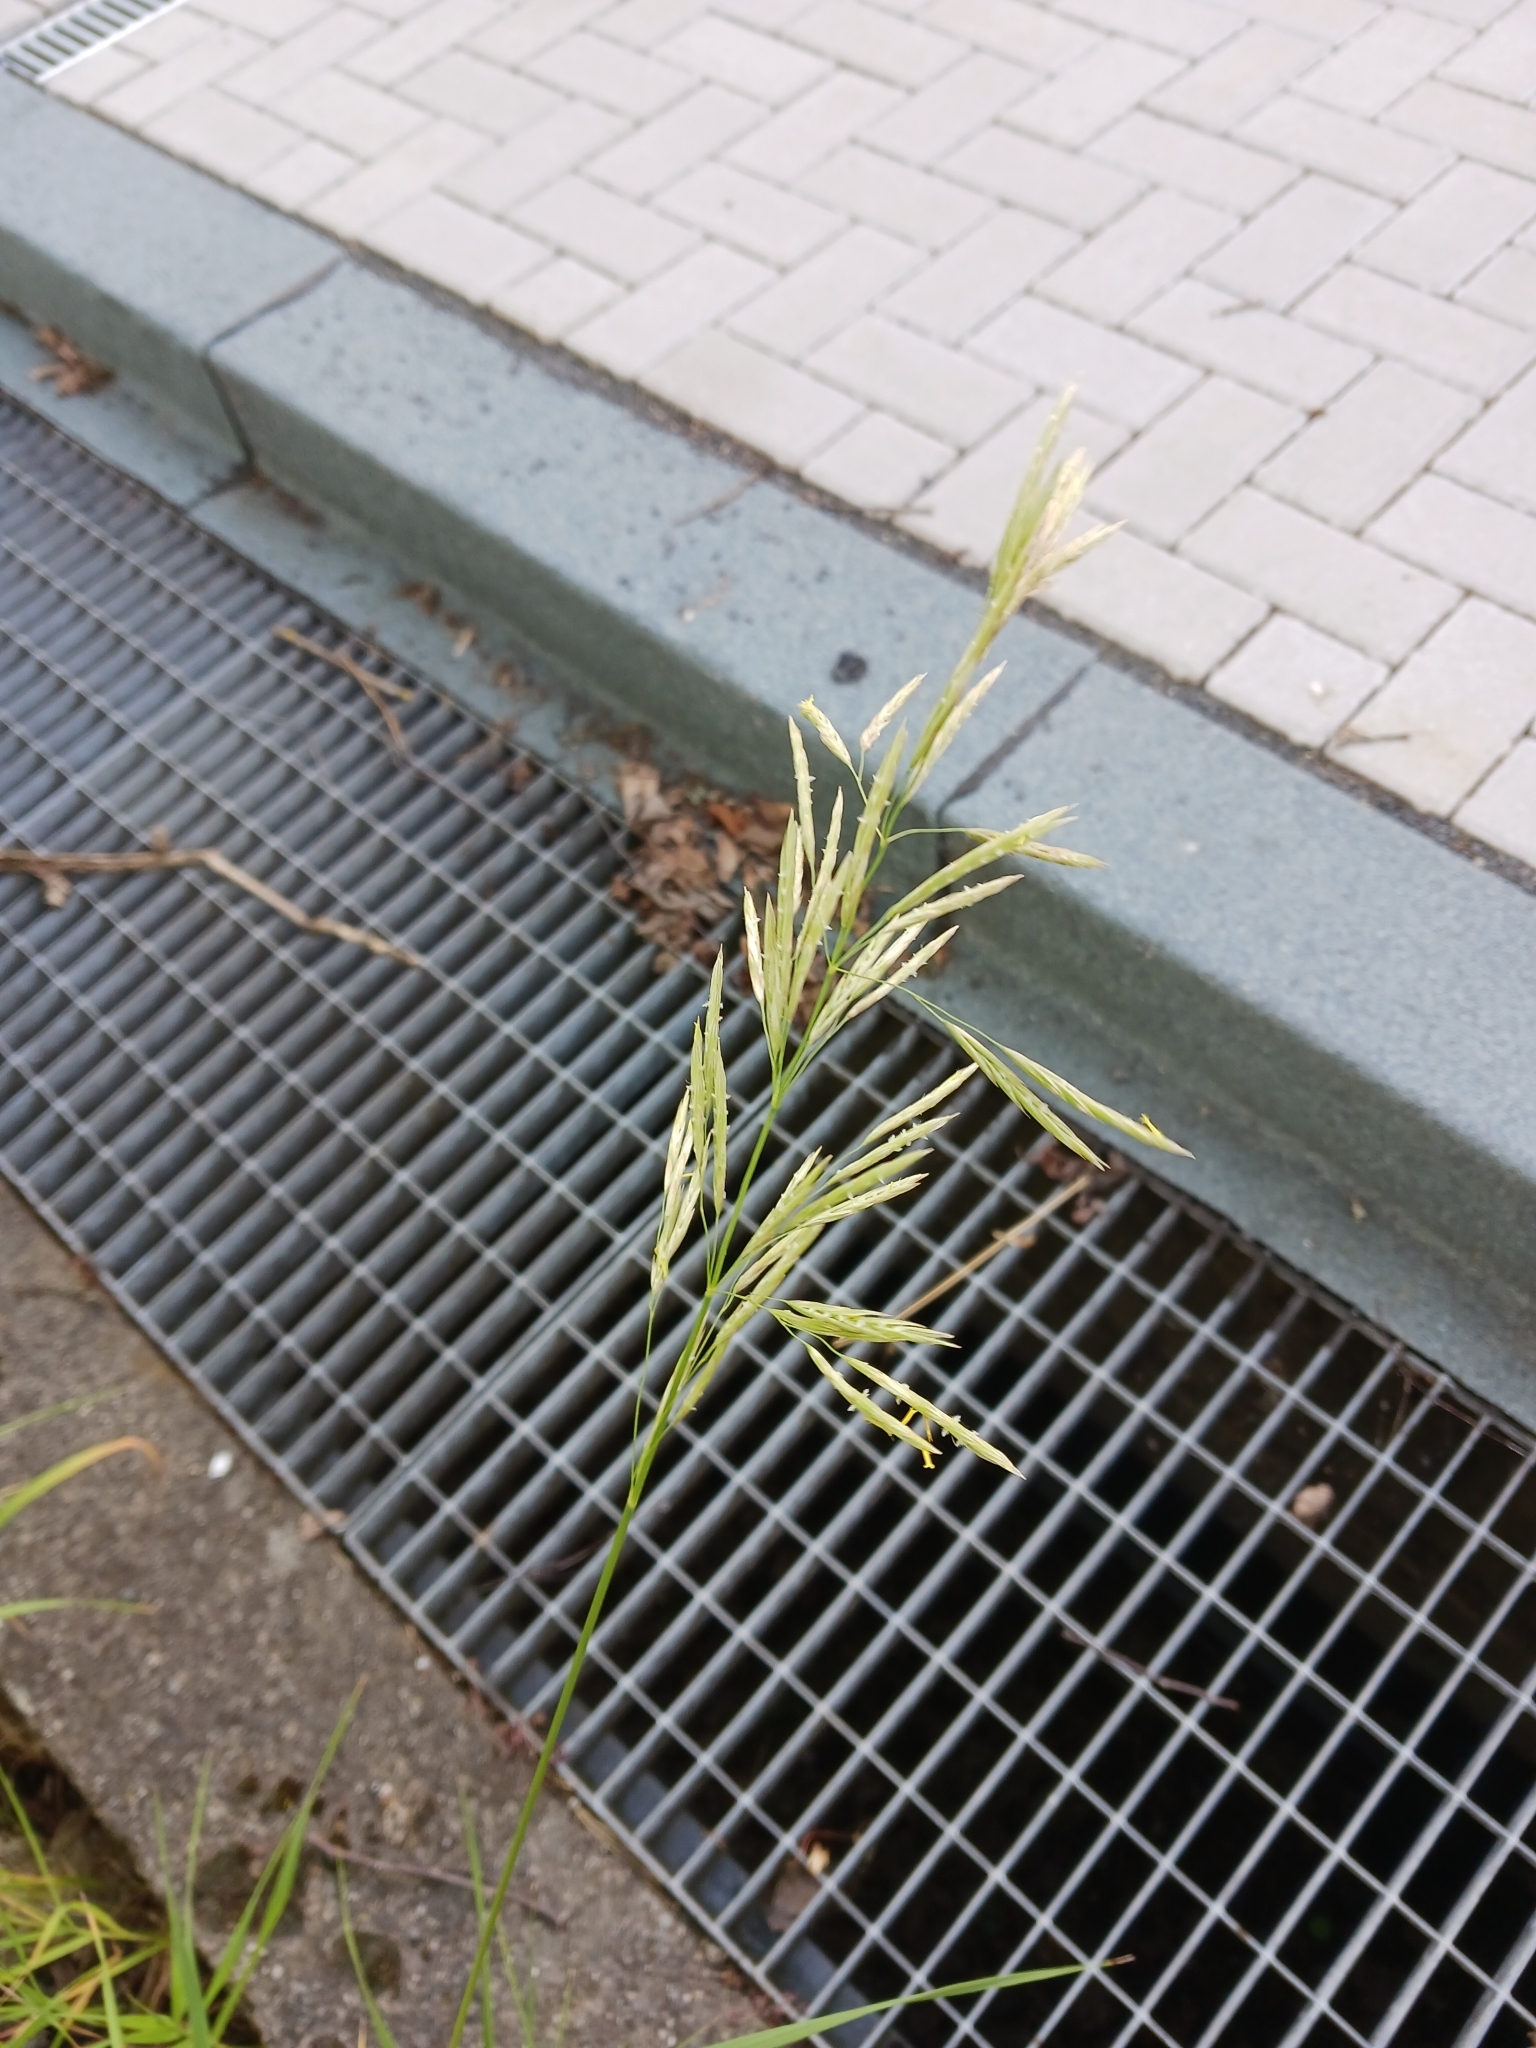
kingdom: Plantae
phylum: Tracheophyta
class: Liliopsida
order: Poales
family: Poaceae
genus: Bromus
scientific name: Bromus inermis
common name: Smooth brome
